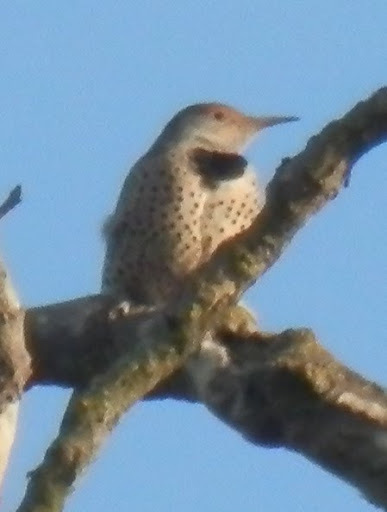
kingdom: Animalia
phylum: Chordata
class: Aves
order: Piciformes
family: Picidae
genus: Colaptes
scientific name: Colaptes auratus
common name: Northern flicker
